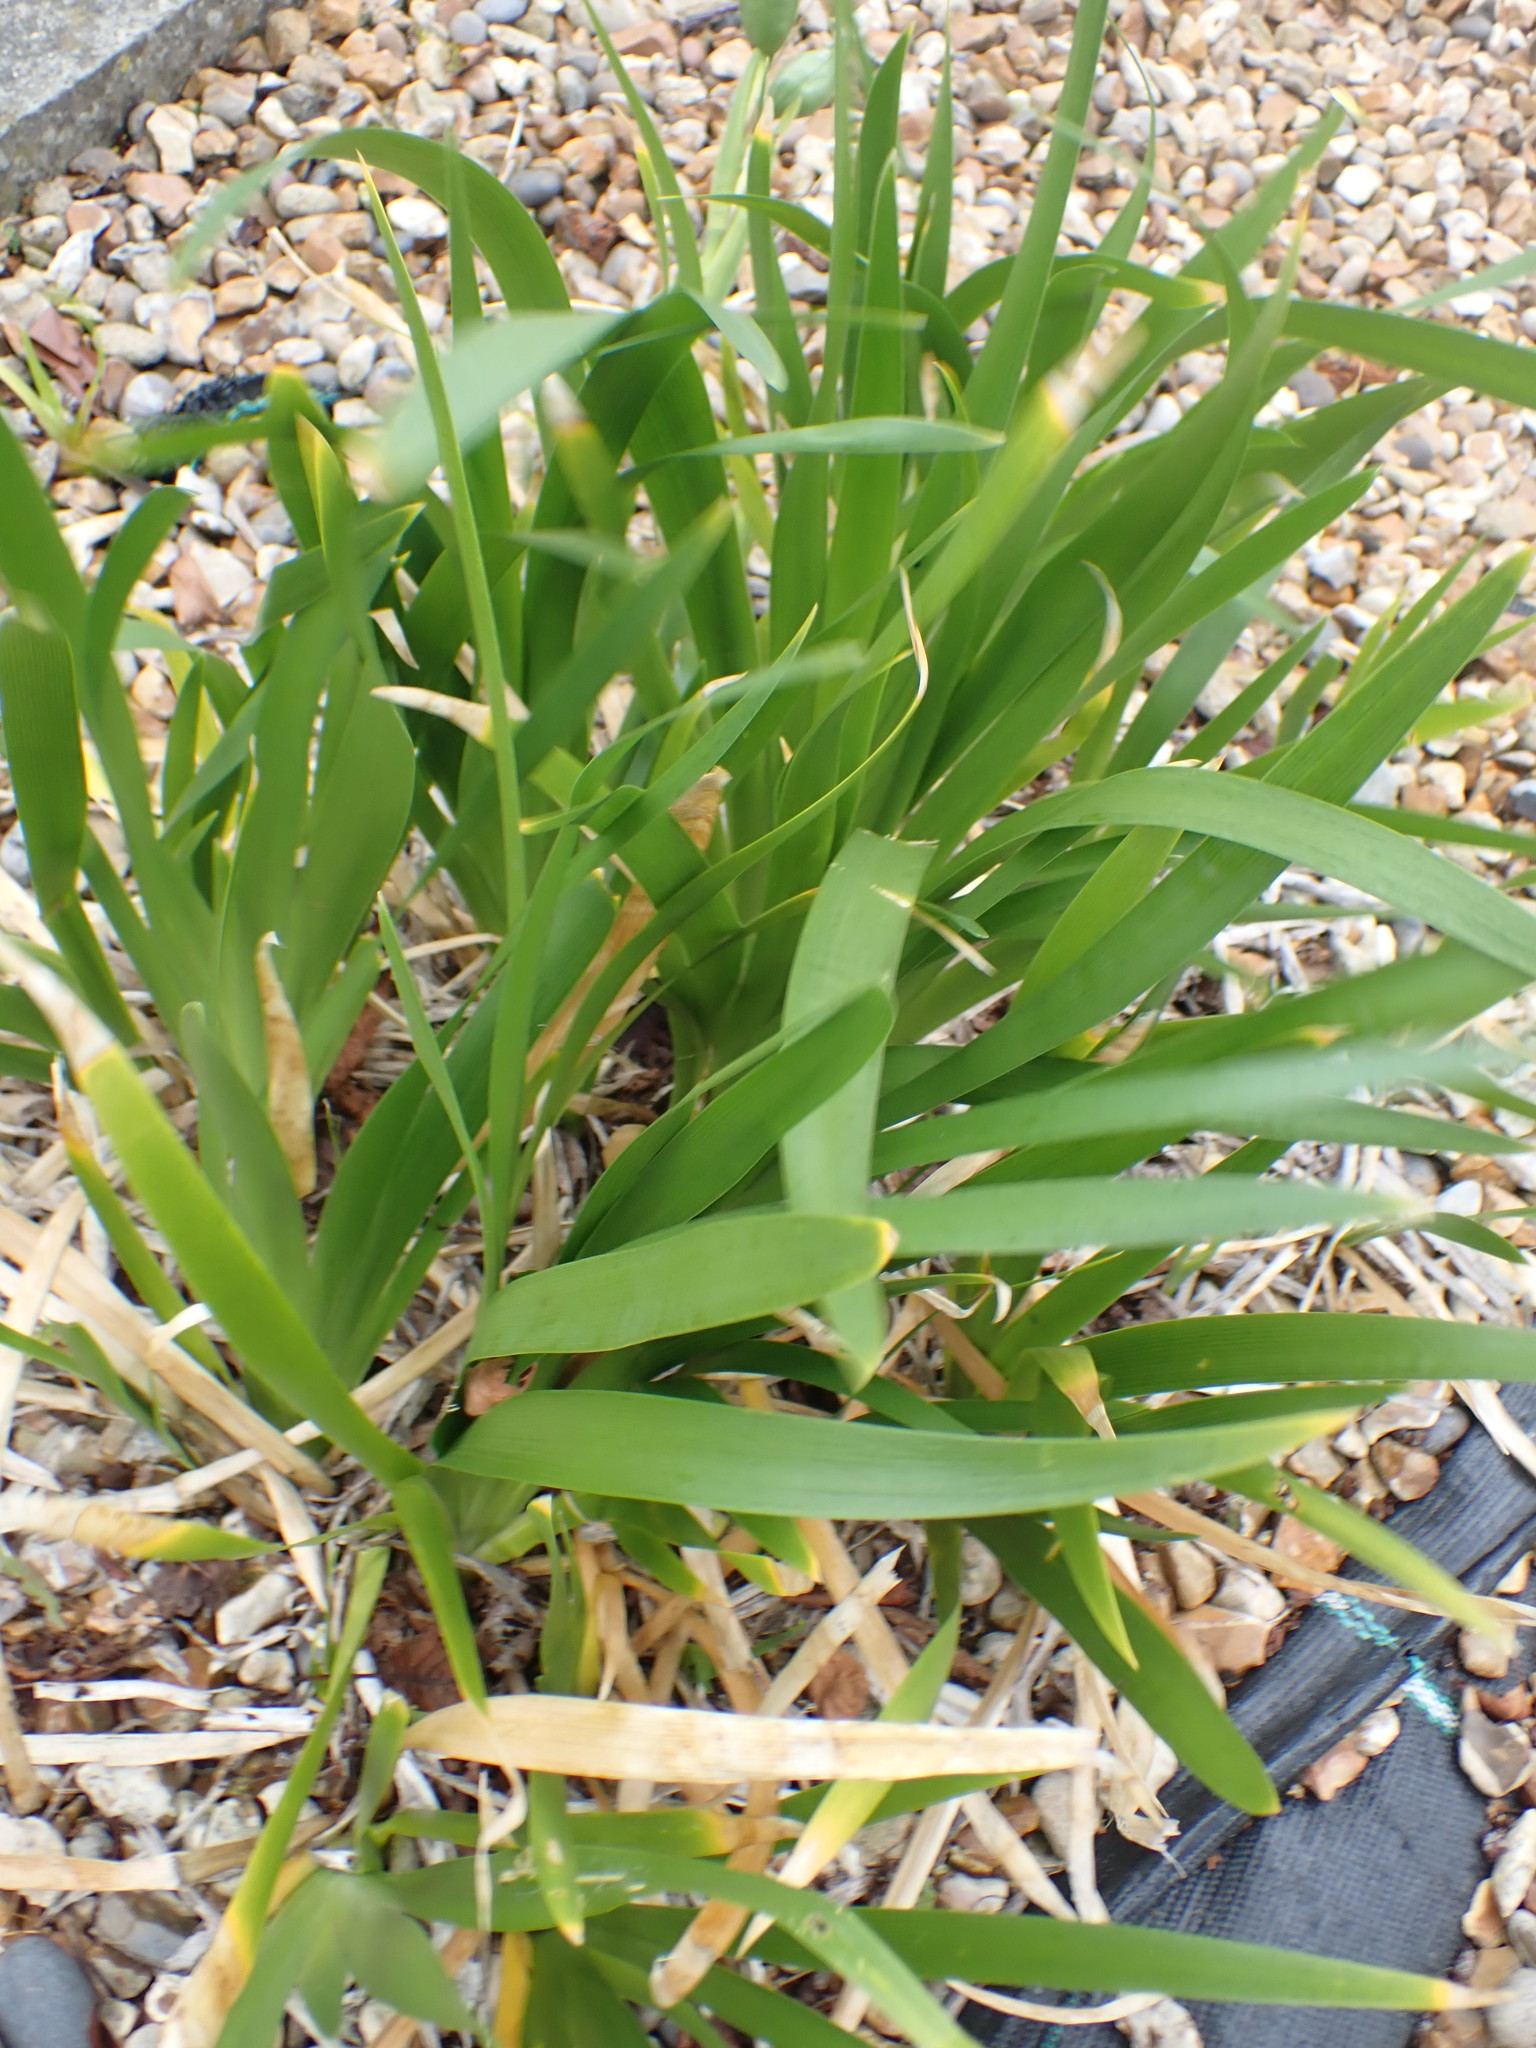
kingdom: Plantae
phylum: Tracheophyta
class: Liliopsida
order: Asparagales
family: Iridaceae
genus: Iris
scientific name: Iris foetidissima
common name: Stinking iris
